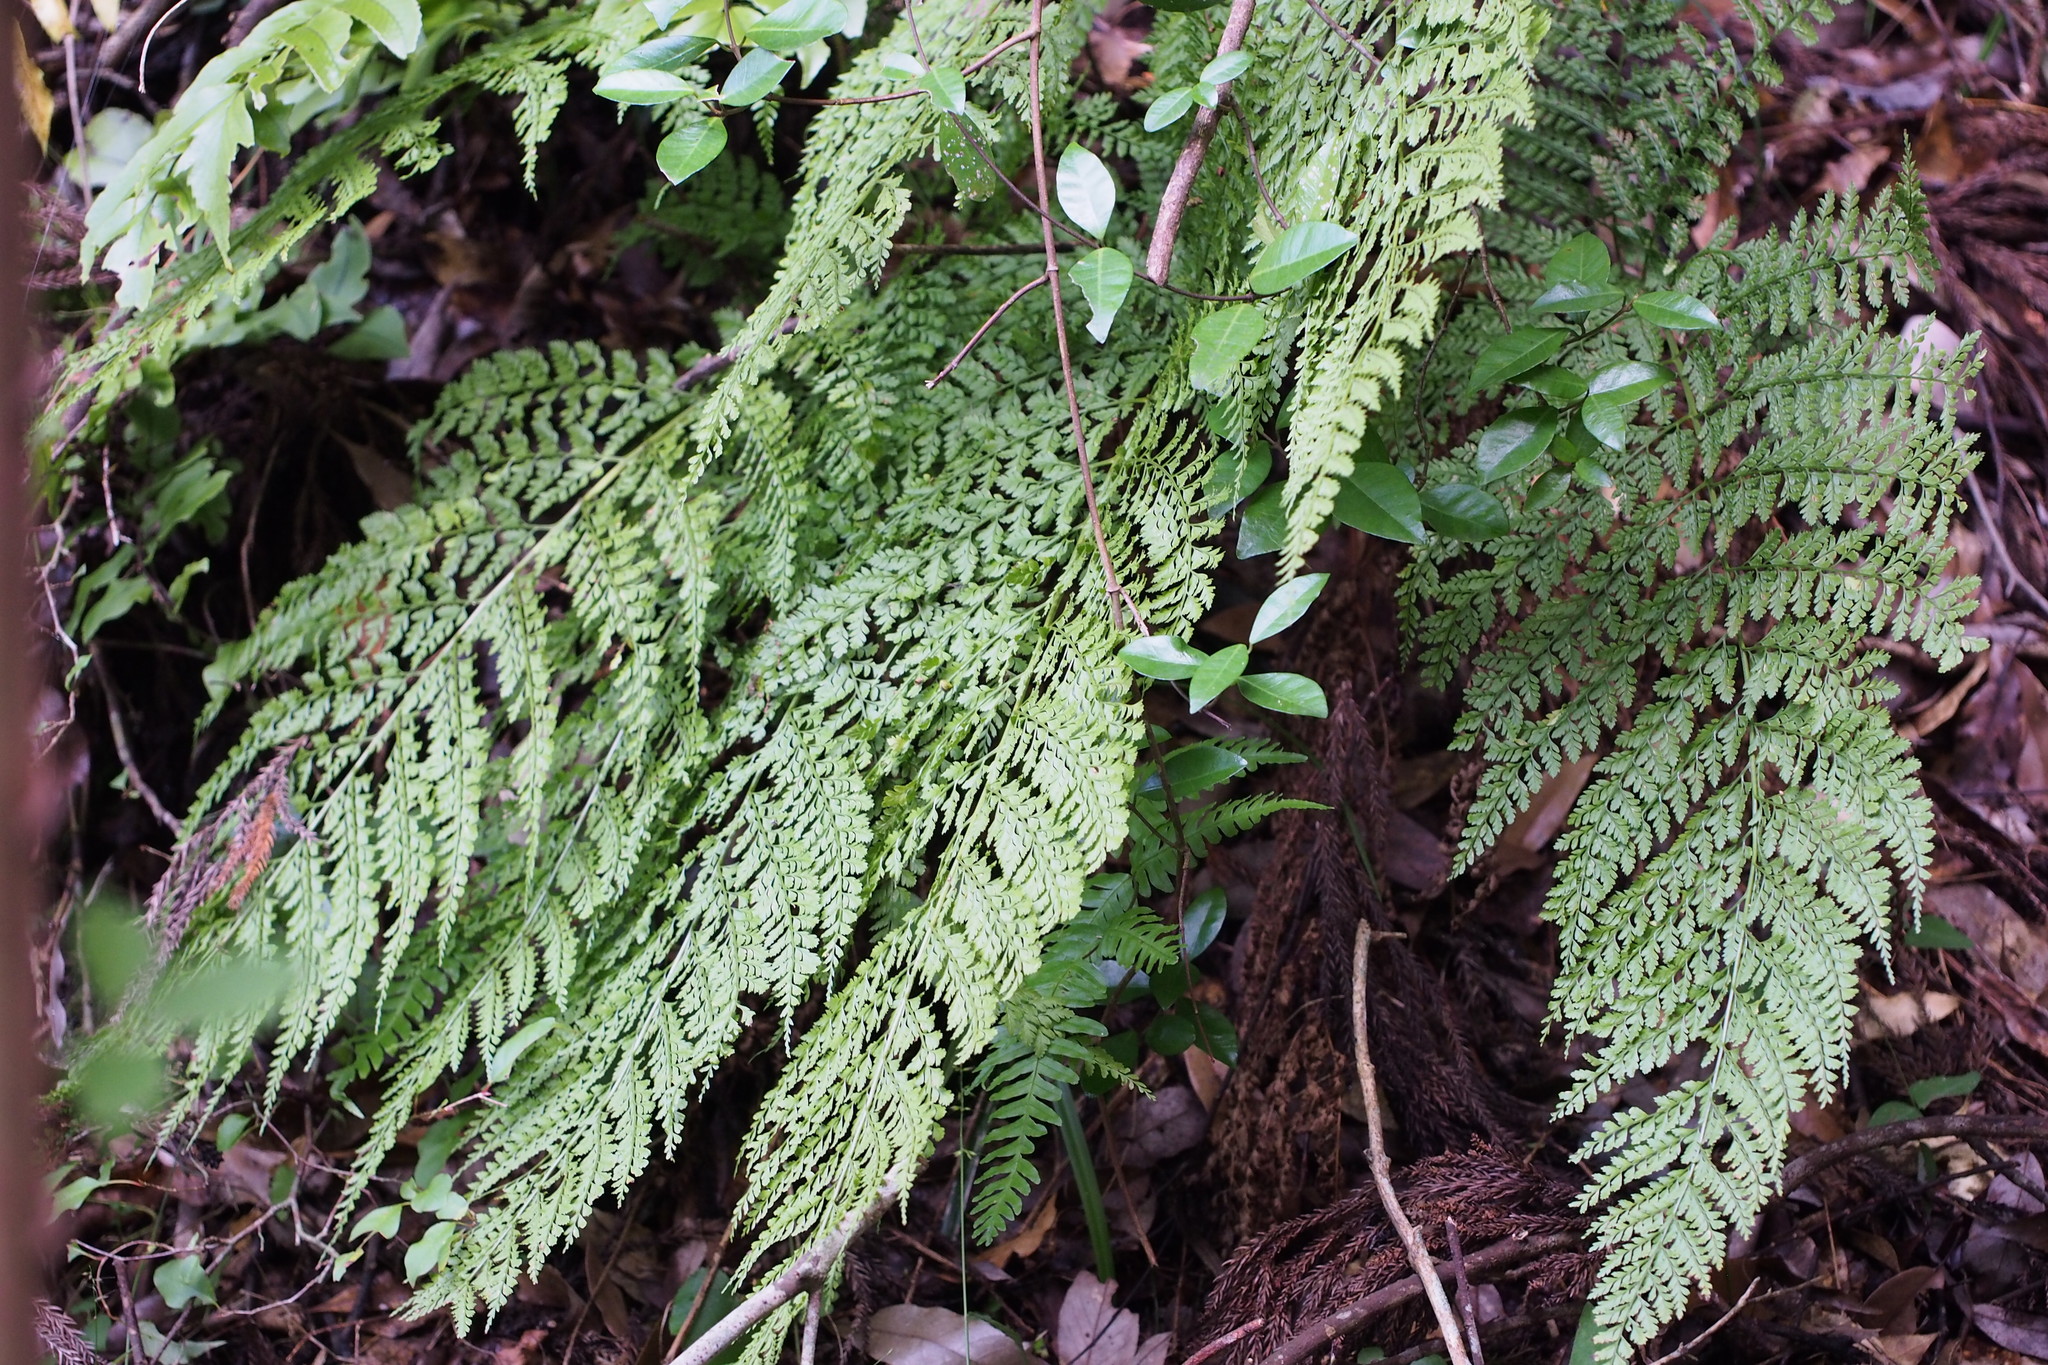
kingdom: Plantae
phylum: Tracheophyta
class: Polypodiopsida
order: Polypodiales
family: Dryopteridaceae
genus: Arachniodes
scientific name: Arachniodes standishii
